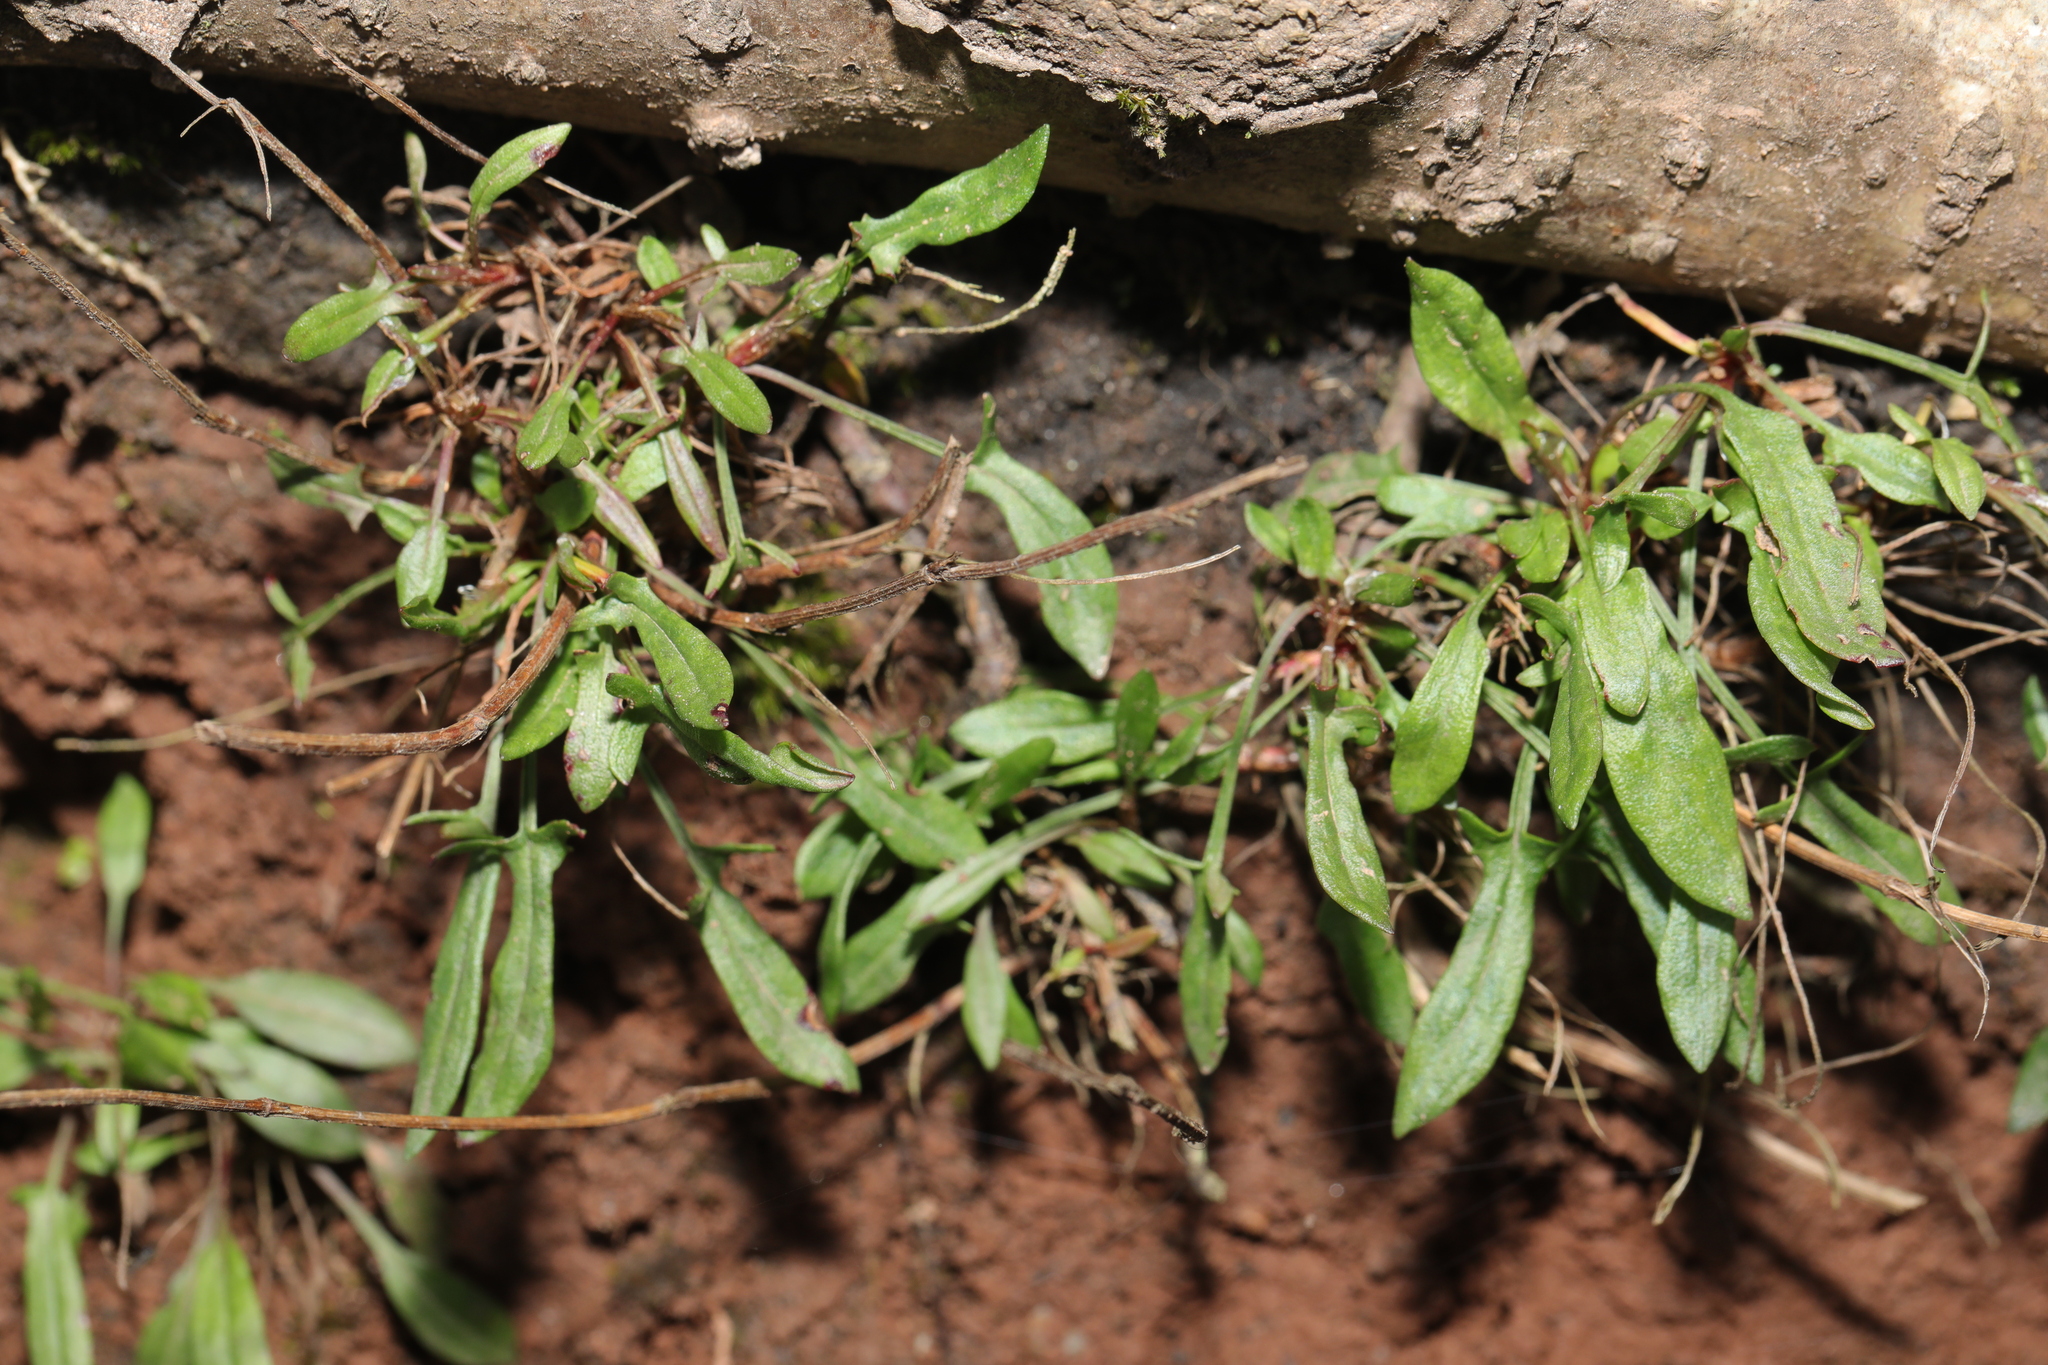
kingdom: Plantae
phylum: Tracheophyta
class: Magnoliopsida
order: Caryophyllales
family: Polygonaceae
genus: Rumex
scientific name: Rumex acetosella
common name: Common sheep sorrel
